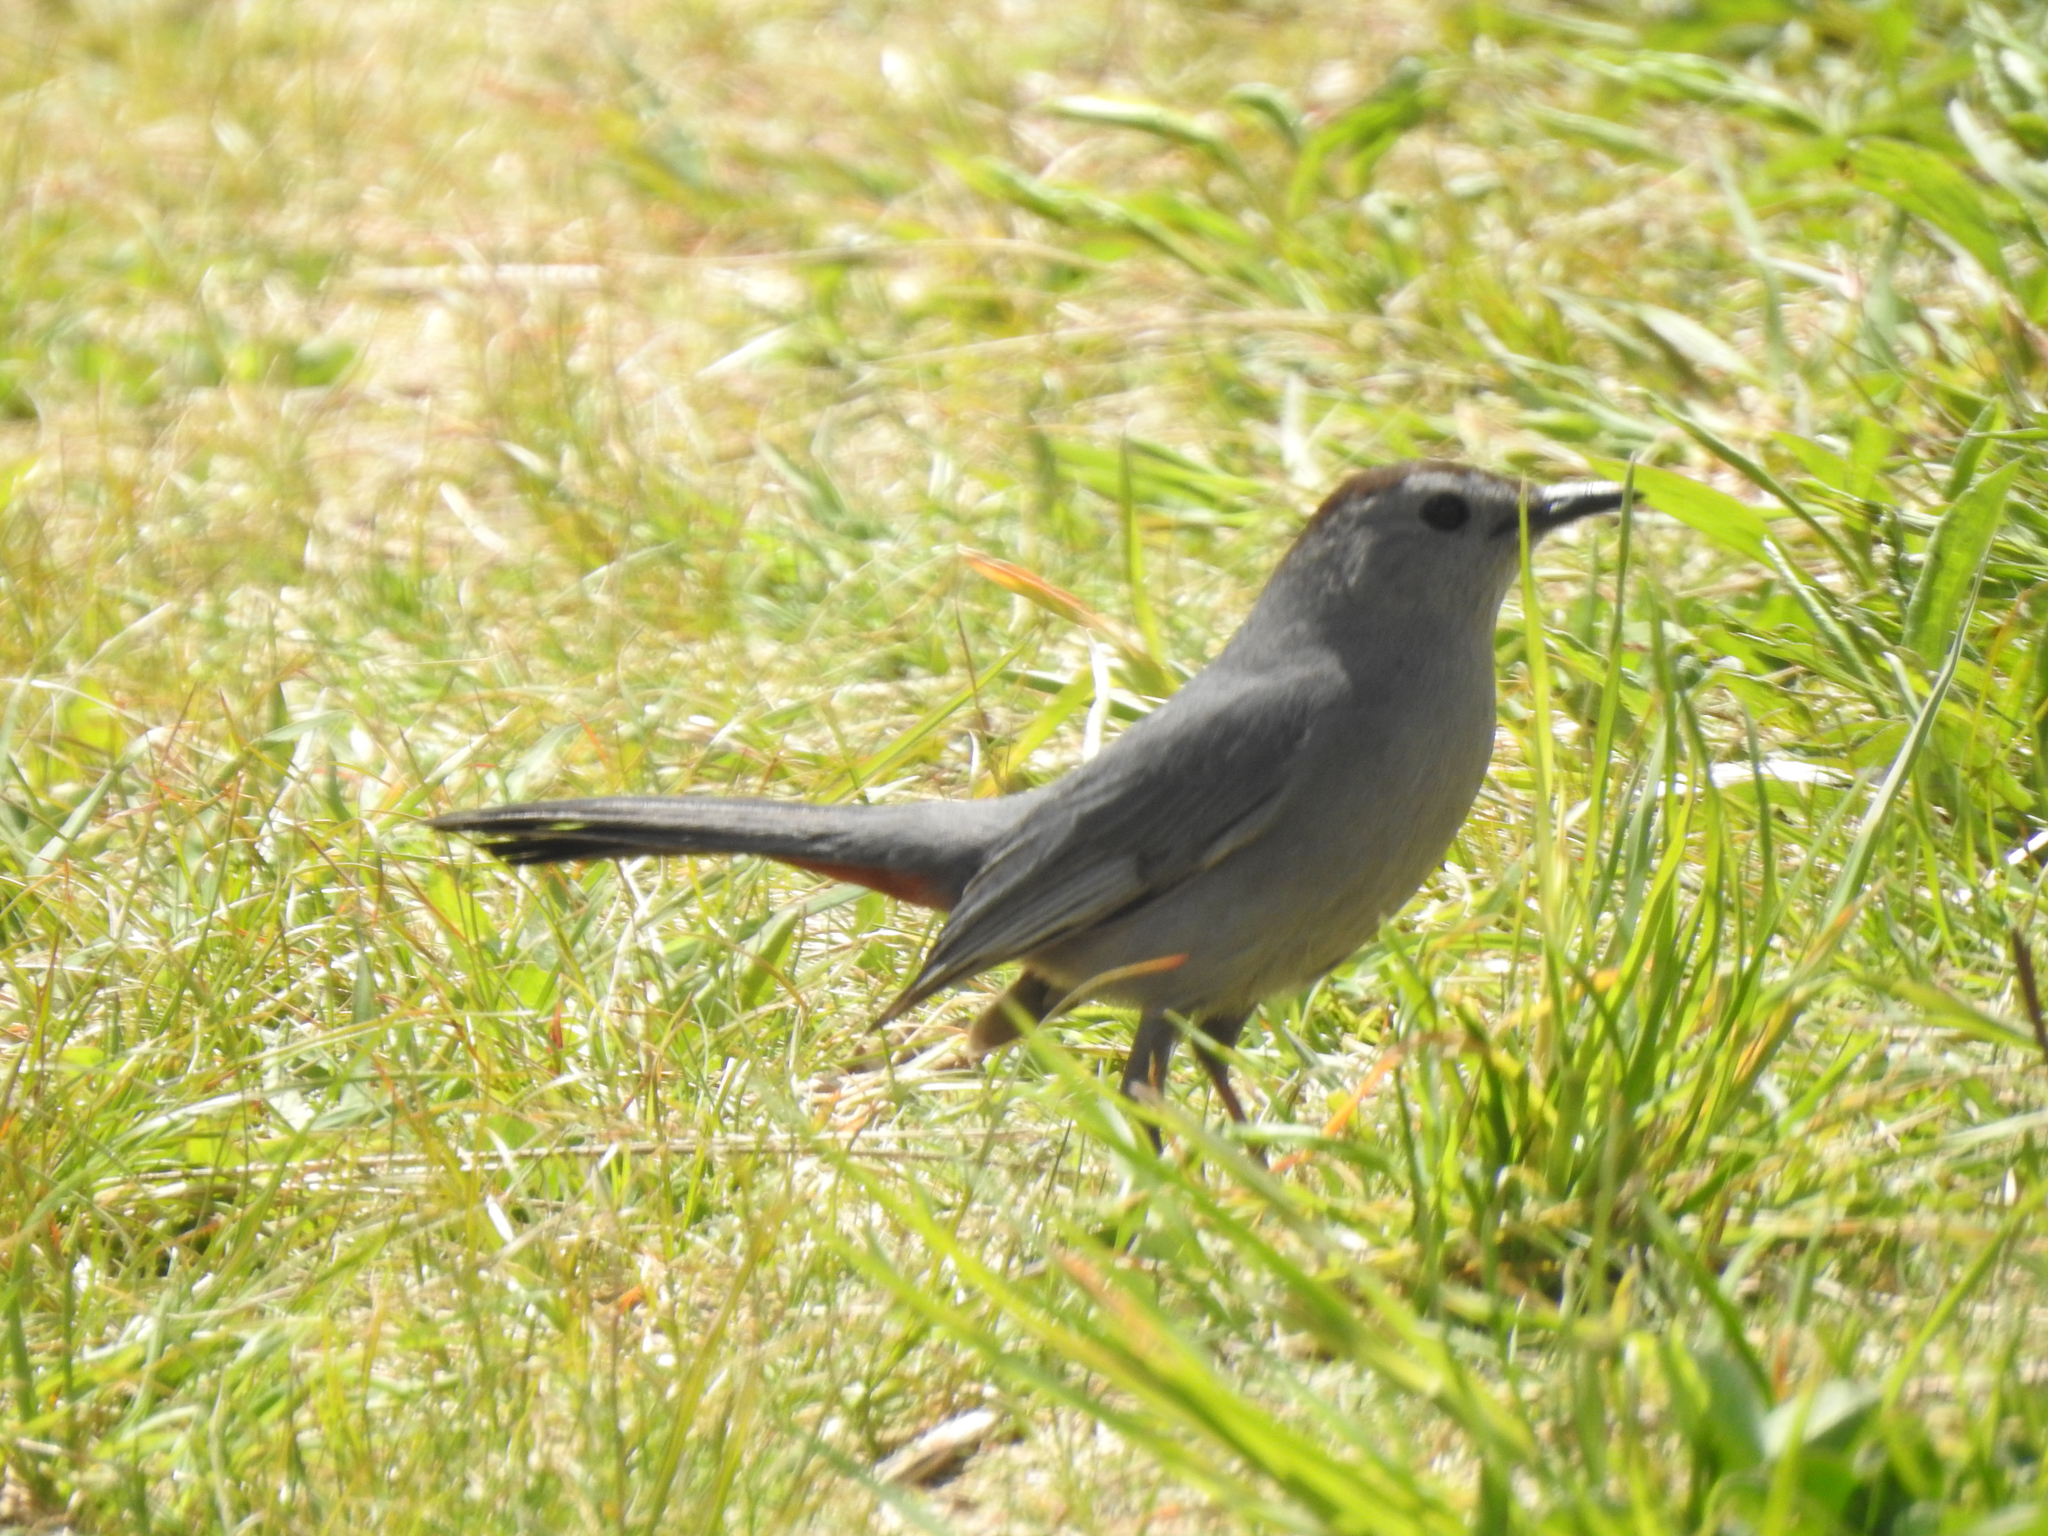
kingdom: Animalia
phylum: Chordata
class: Aves
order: Passeriformes
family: Mimidae
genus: Dumetella
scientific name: Dumetella carolinensis
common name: Gray catbird
